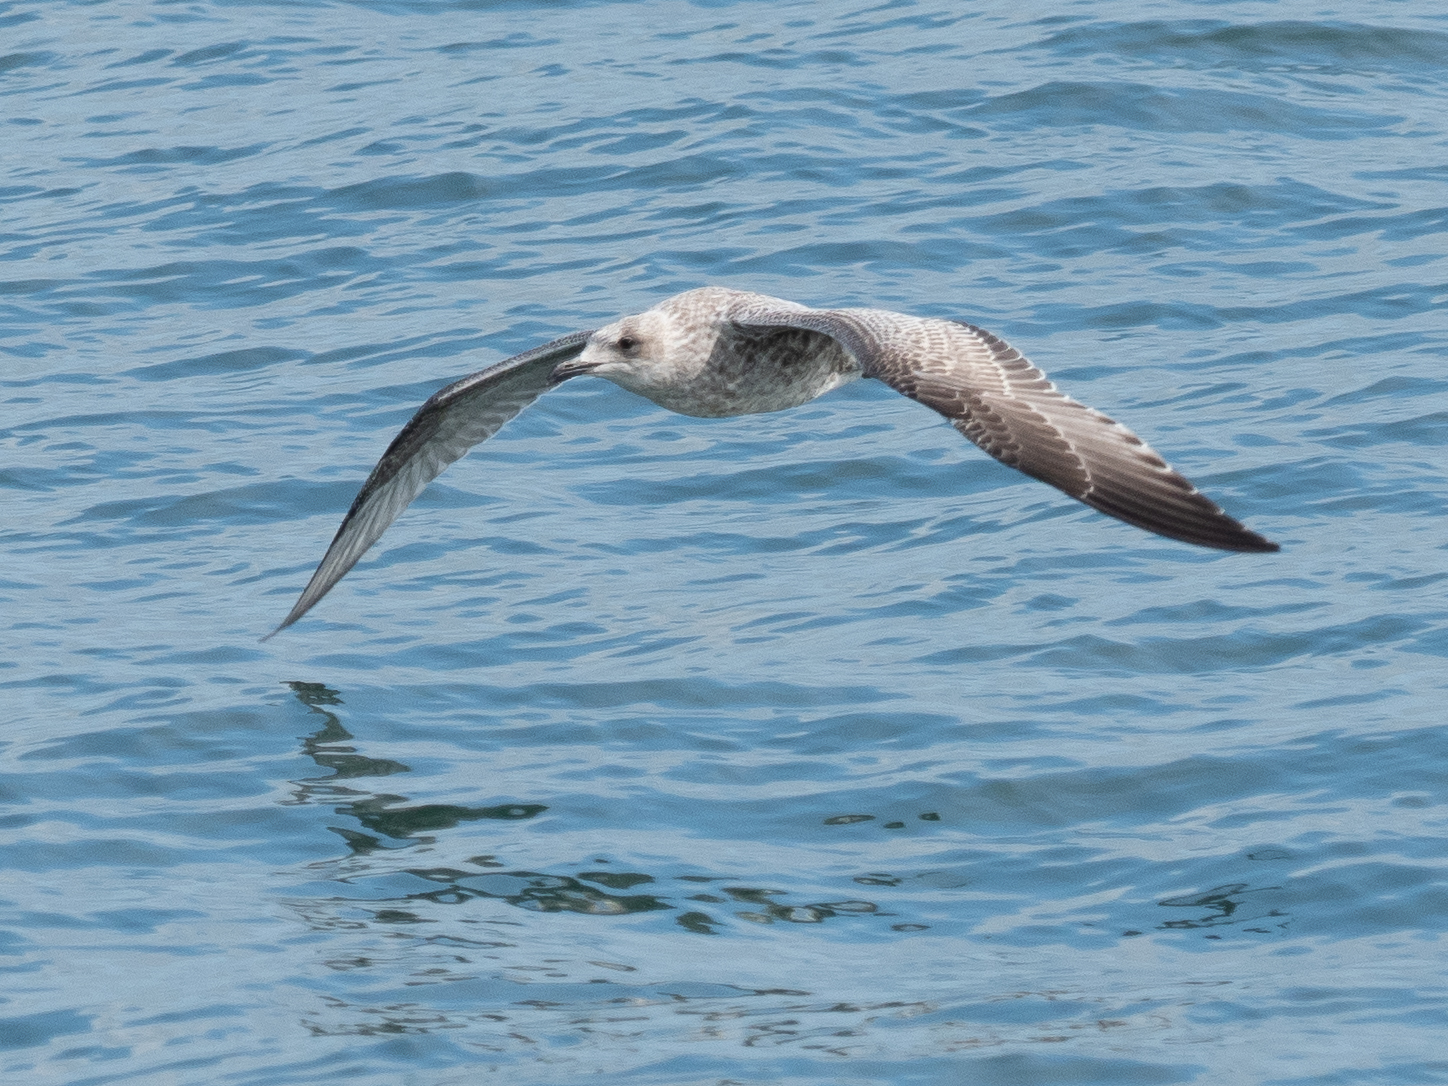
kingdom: Animalia
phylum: Chordata
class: Aves
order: Charadriiformes
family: Laridae
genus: Larus
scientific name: Larus argentatus
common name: Herring gull
